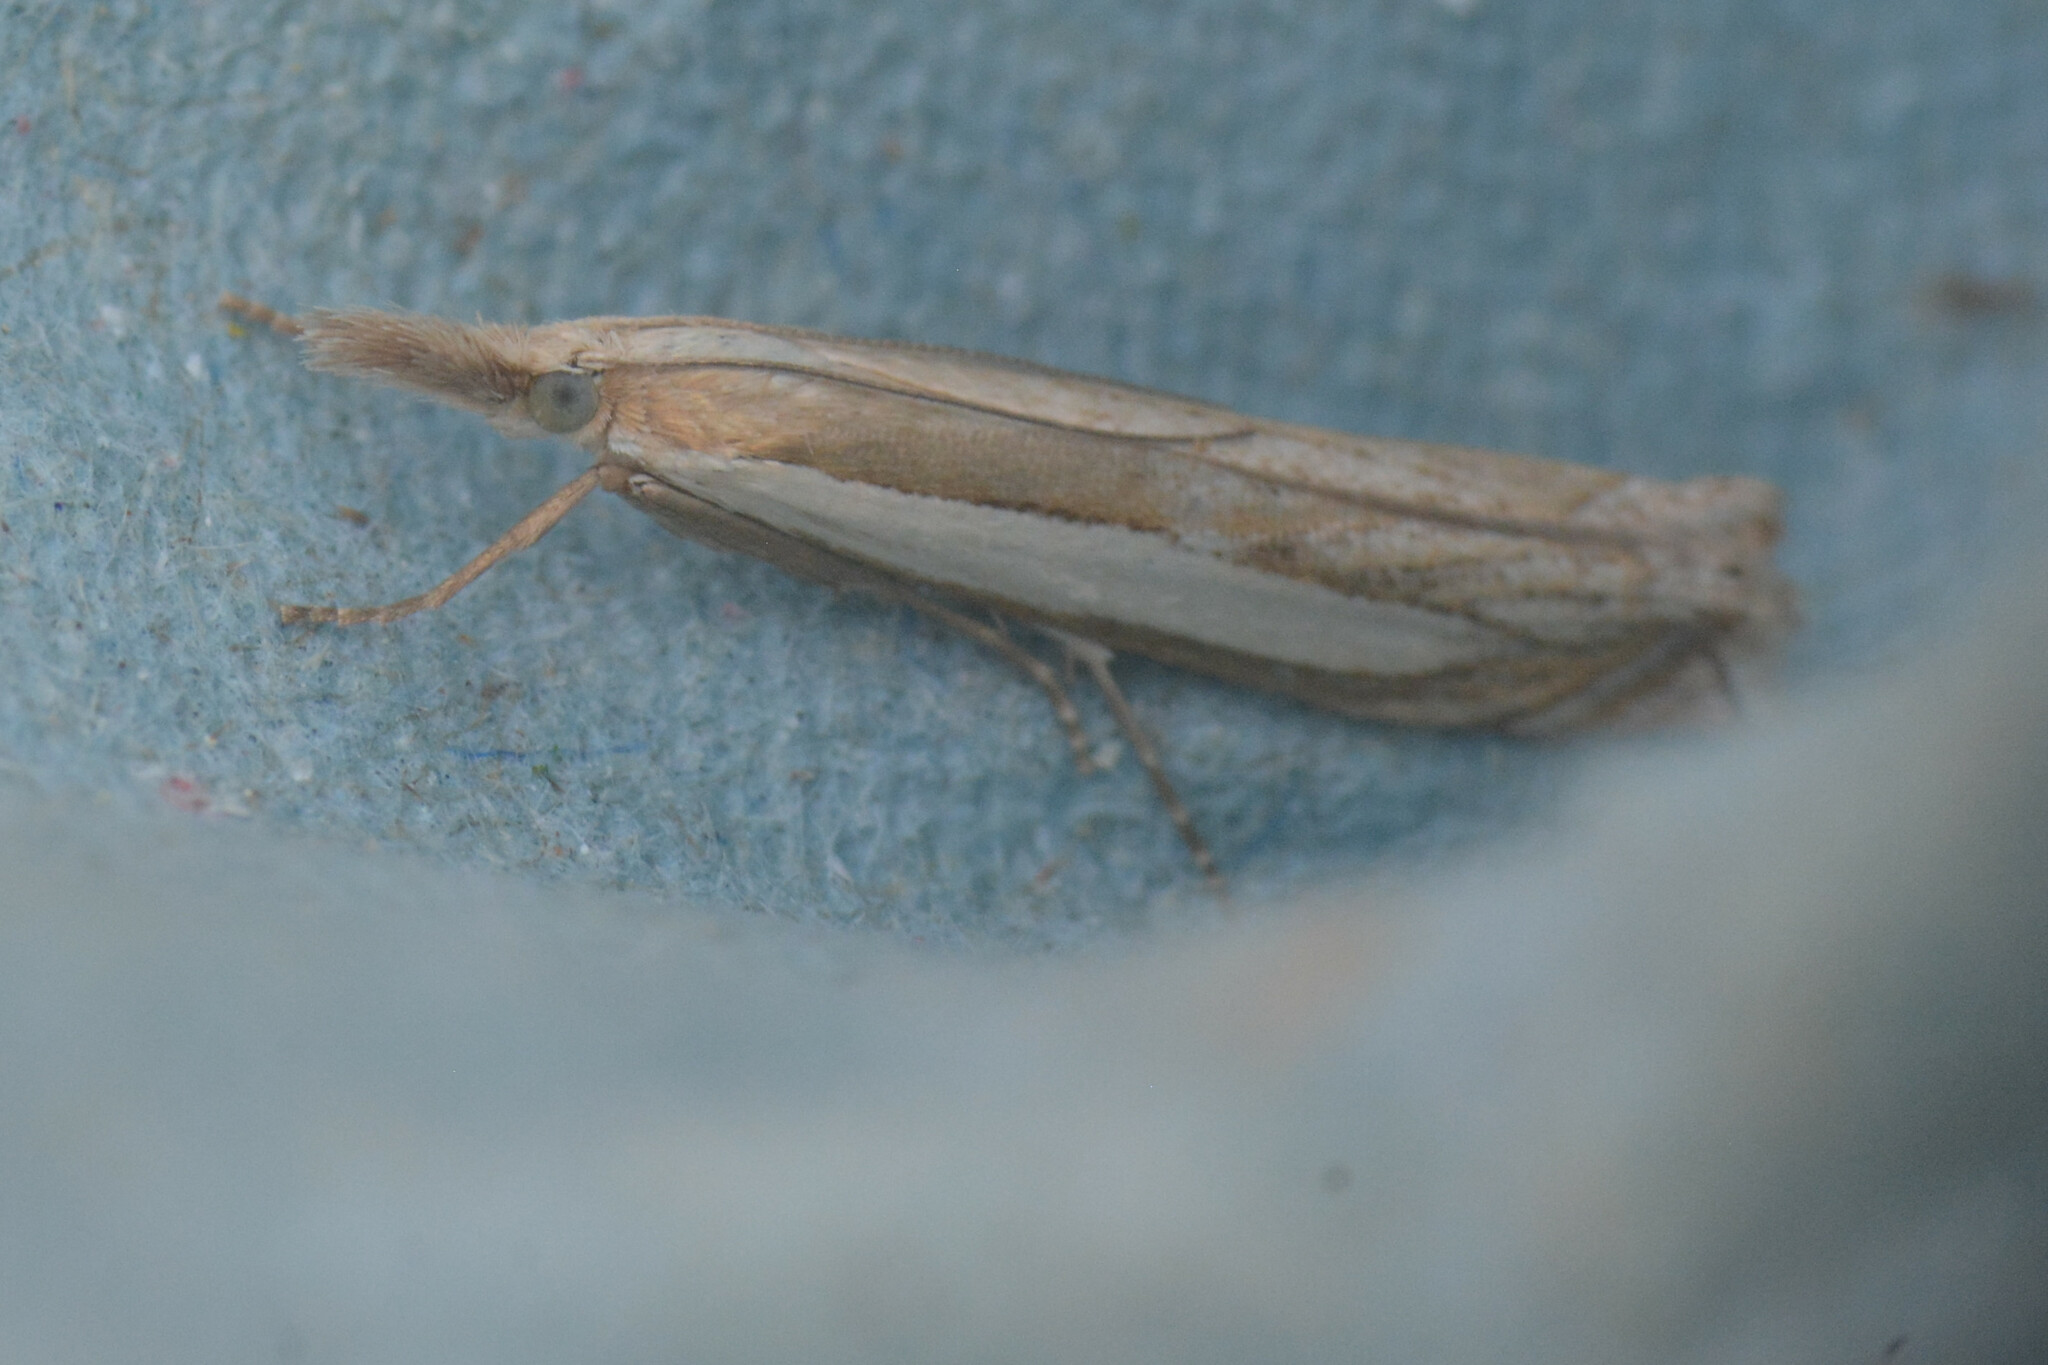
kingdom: Animalia
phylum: Arthropoda
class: Insecta
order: Lepidoptera
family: Crambidae
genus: Crambus
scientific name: Crambus pascuella
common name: Inlaid grass-veneer
